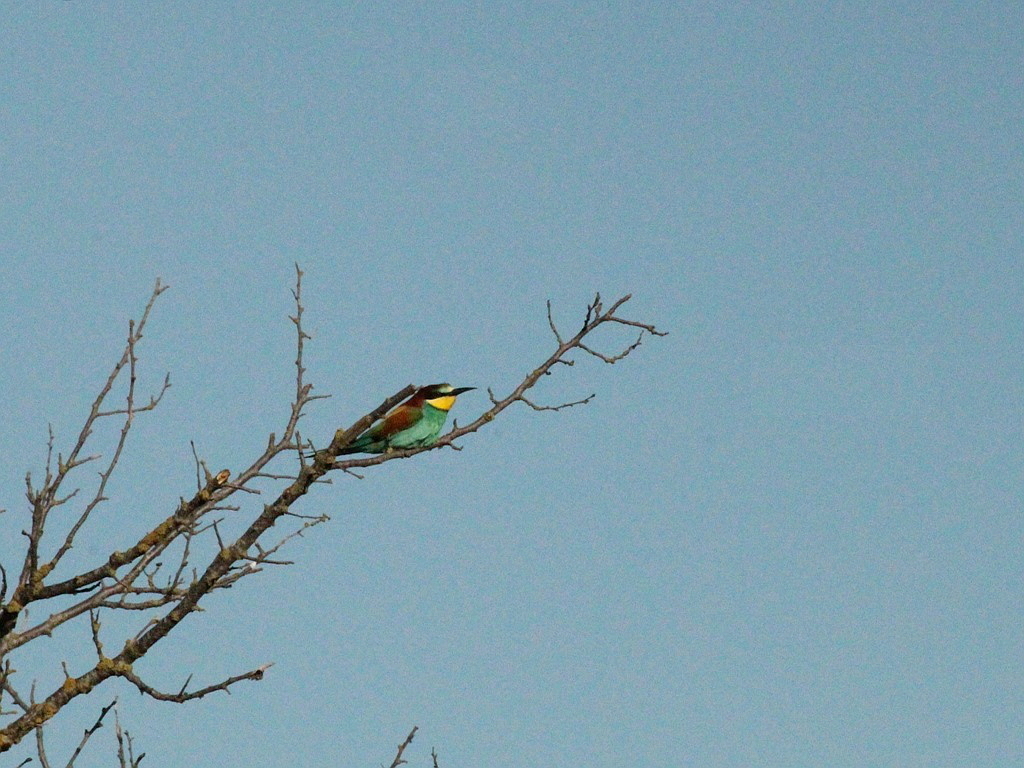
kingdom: Animalia
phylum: Chordata
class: Aves
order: Coraciiformes
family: Meropidae
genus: Merops
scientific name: Merops apiaster
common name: European bee-eater
